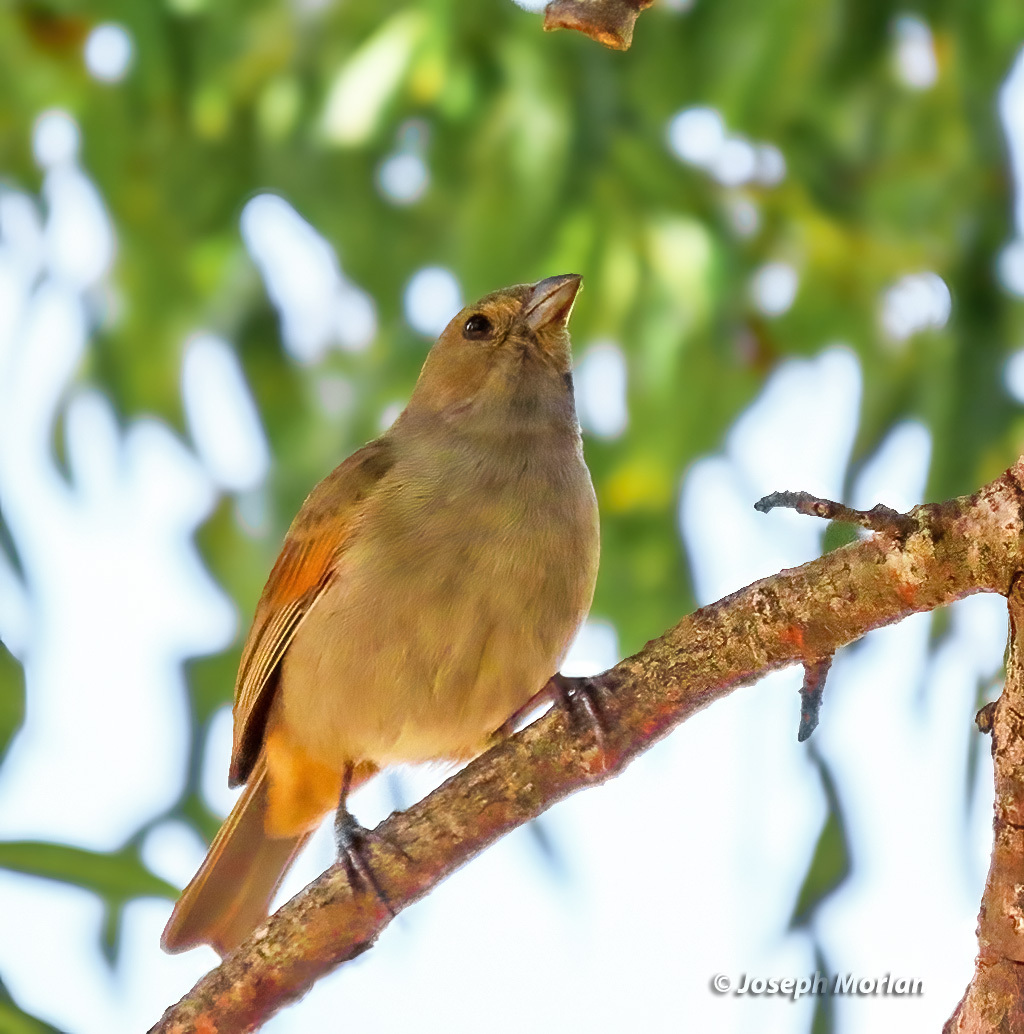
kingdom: Animalia
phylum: Chordata
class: Aves
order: Passeriformes
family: Thraupidae
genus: Loxigilla
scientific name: Loxigilla barbadensis
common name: Barbados bullfinch
